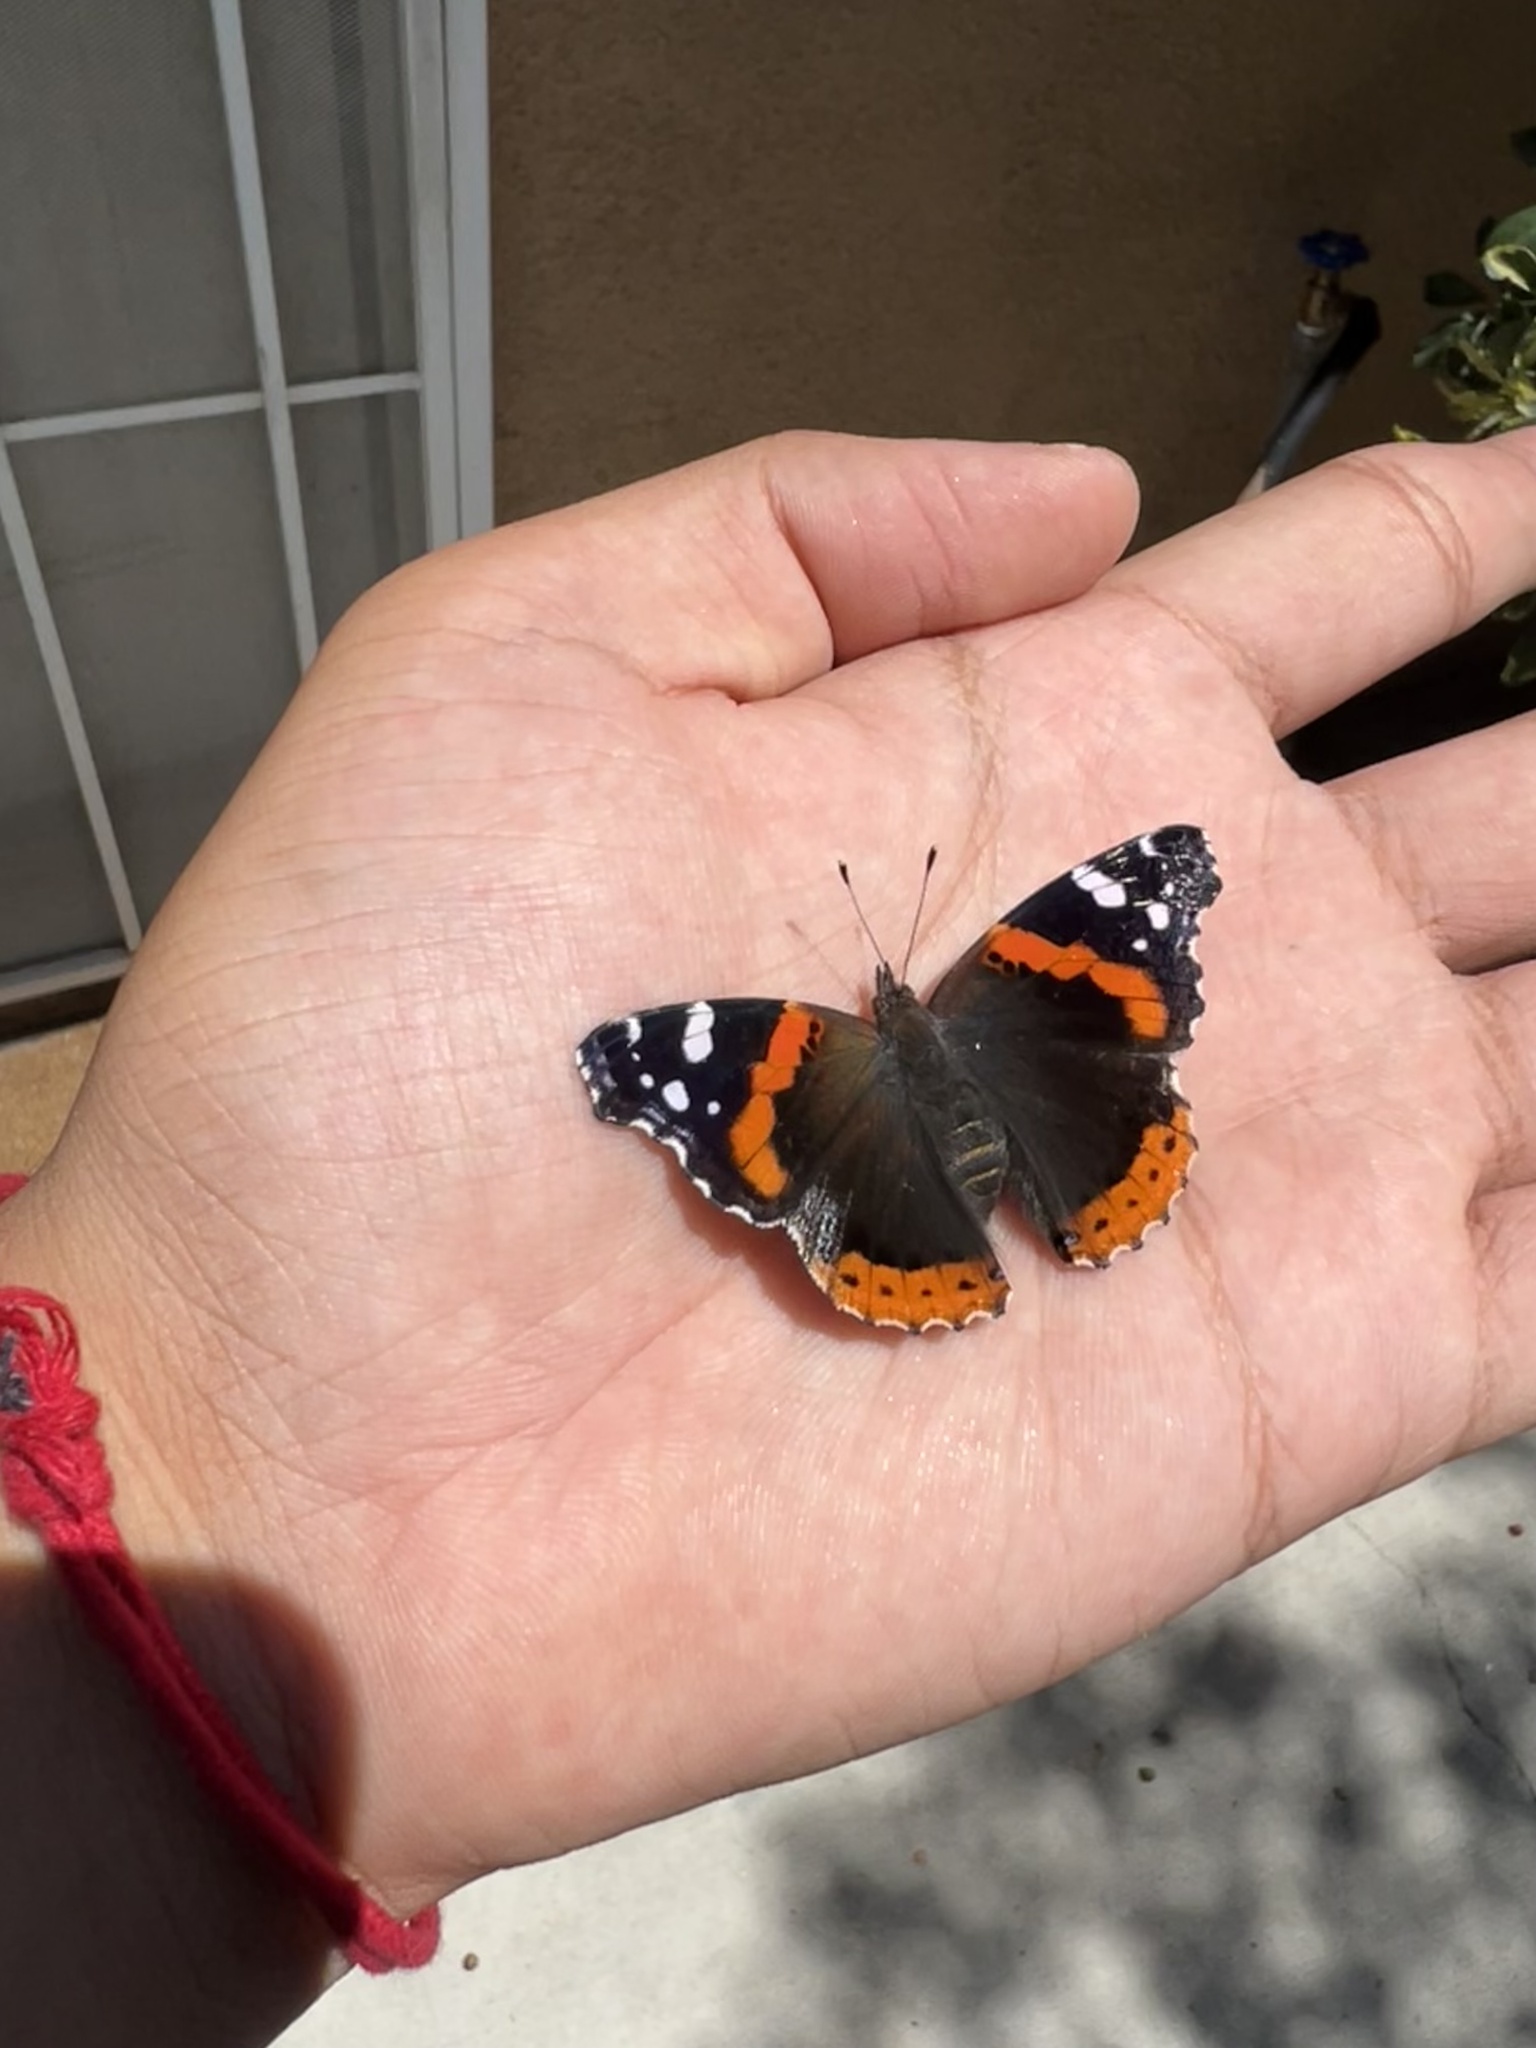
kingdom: Animalia
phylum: Arthropoda
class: Insecta
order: Lepidoptera
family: Nymphalidae
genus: Vanessa
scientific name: Vanessa atalanta
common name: Red admiral
